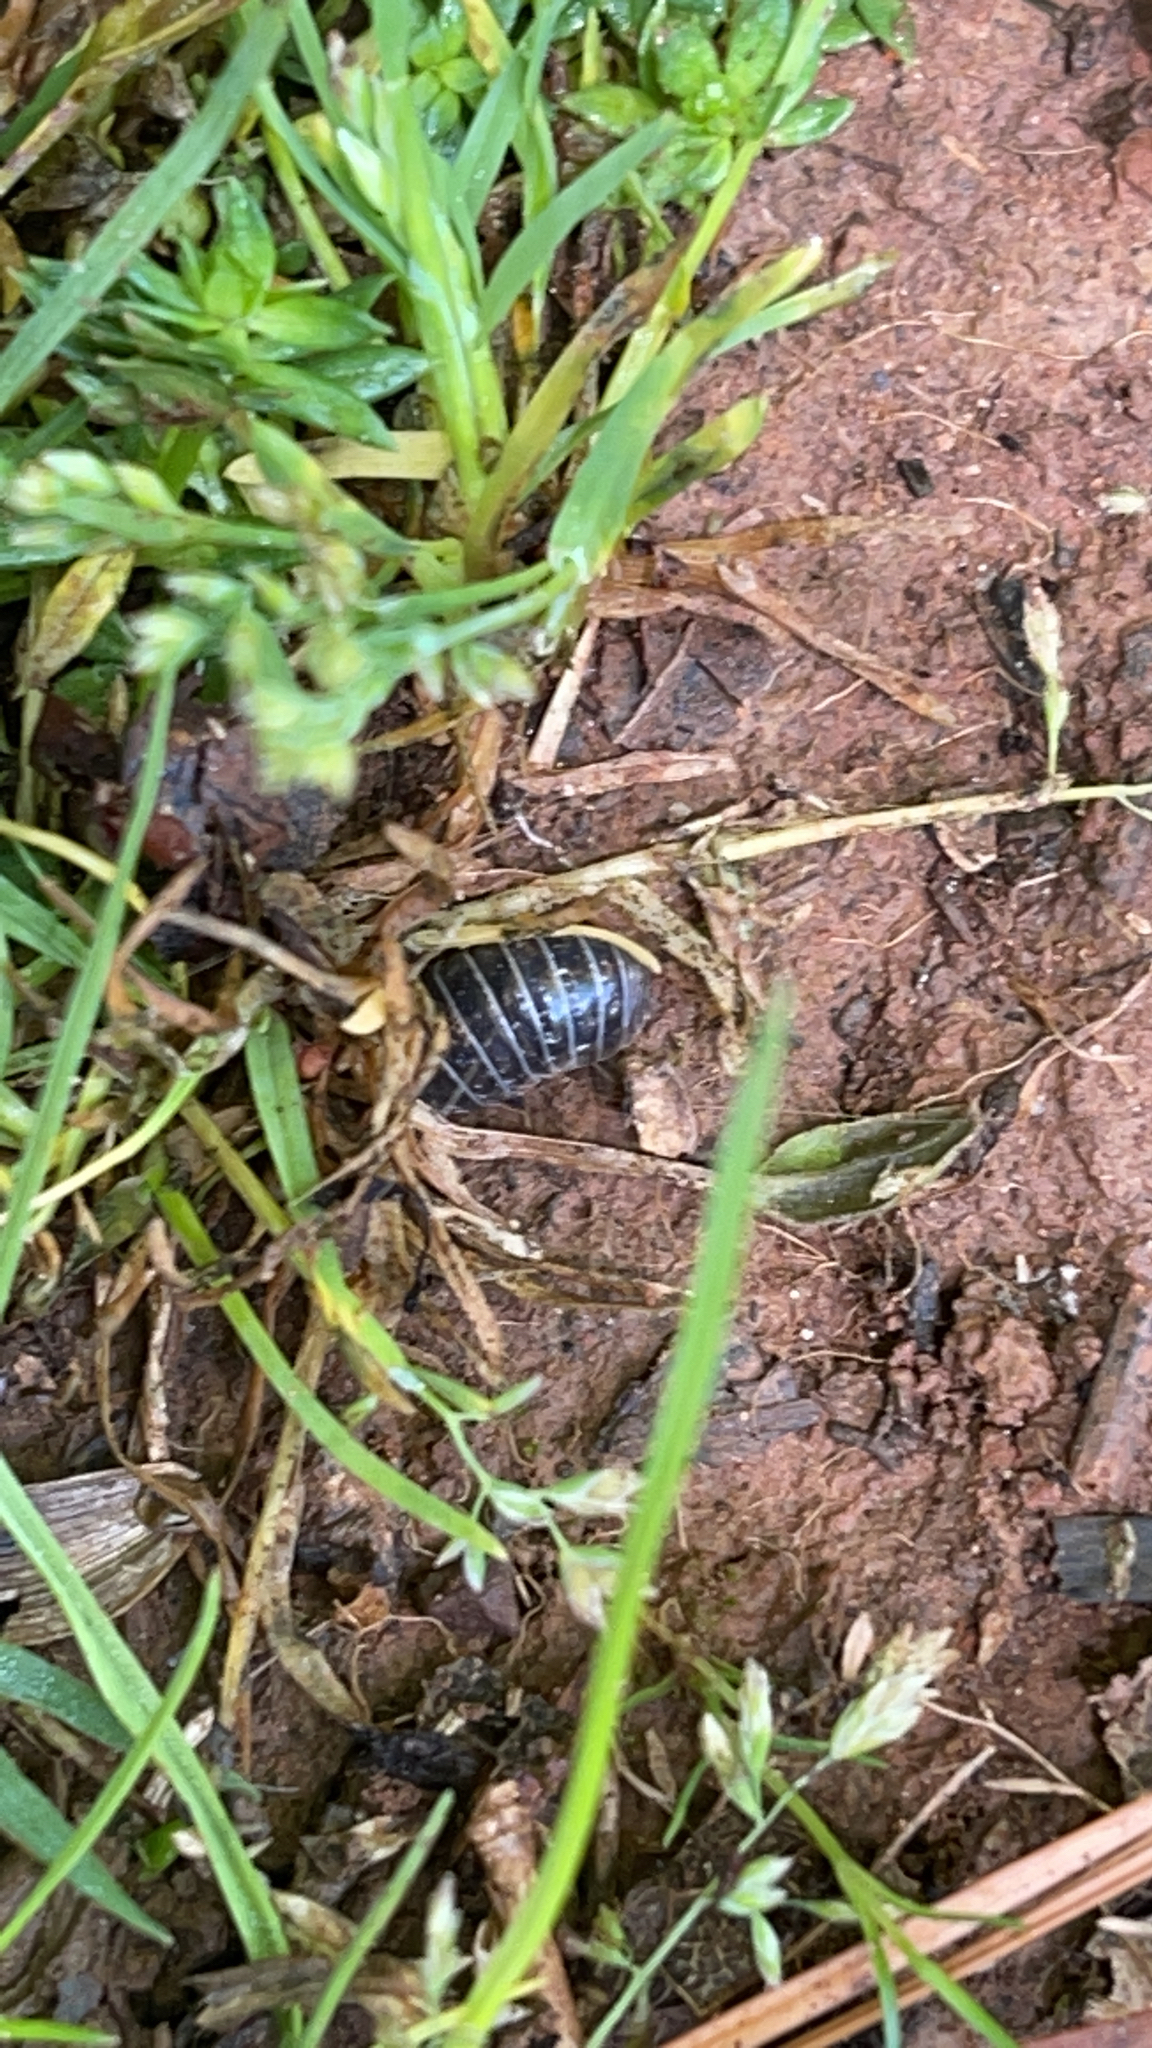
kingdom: Animalia
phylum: Arthropoda
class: Malacostraca
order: Isopoda
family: Armadillidiidae
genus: Armadillidium
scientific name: Armadillidium vulgare
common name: Common pill woodlouse
